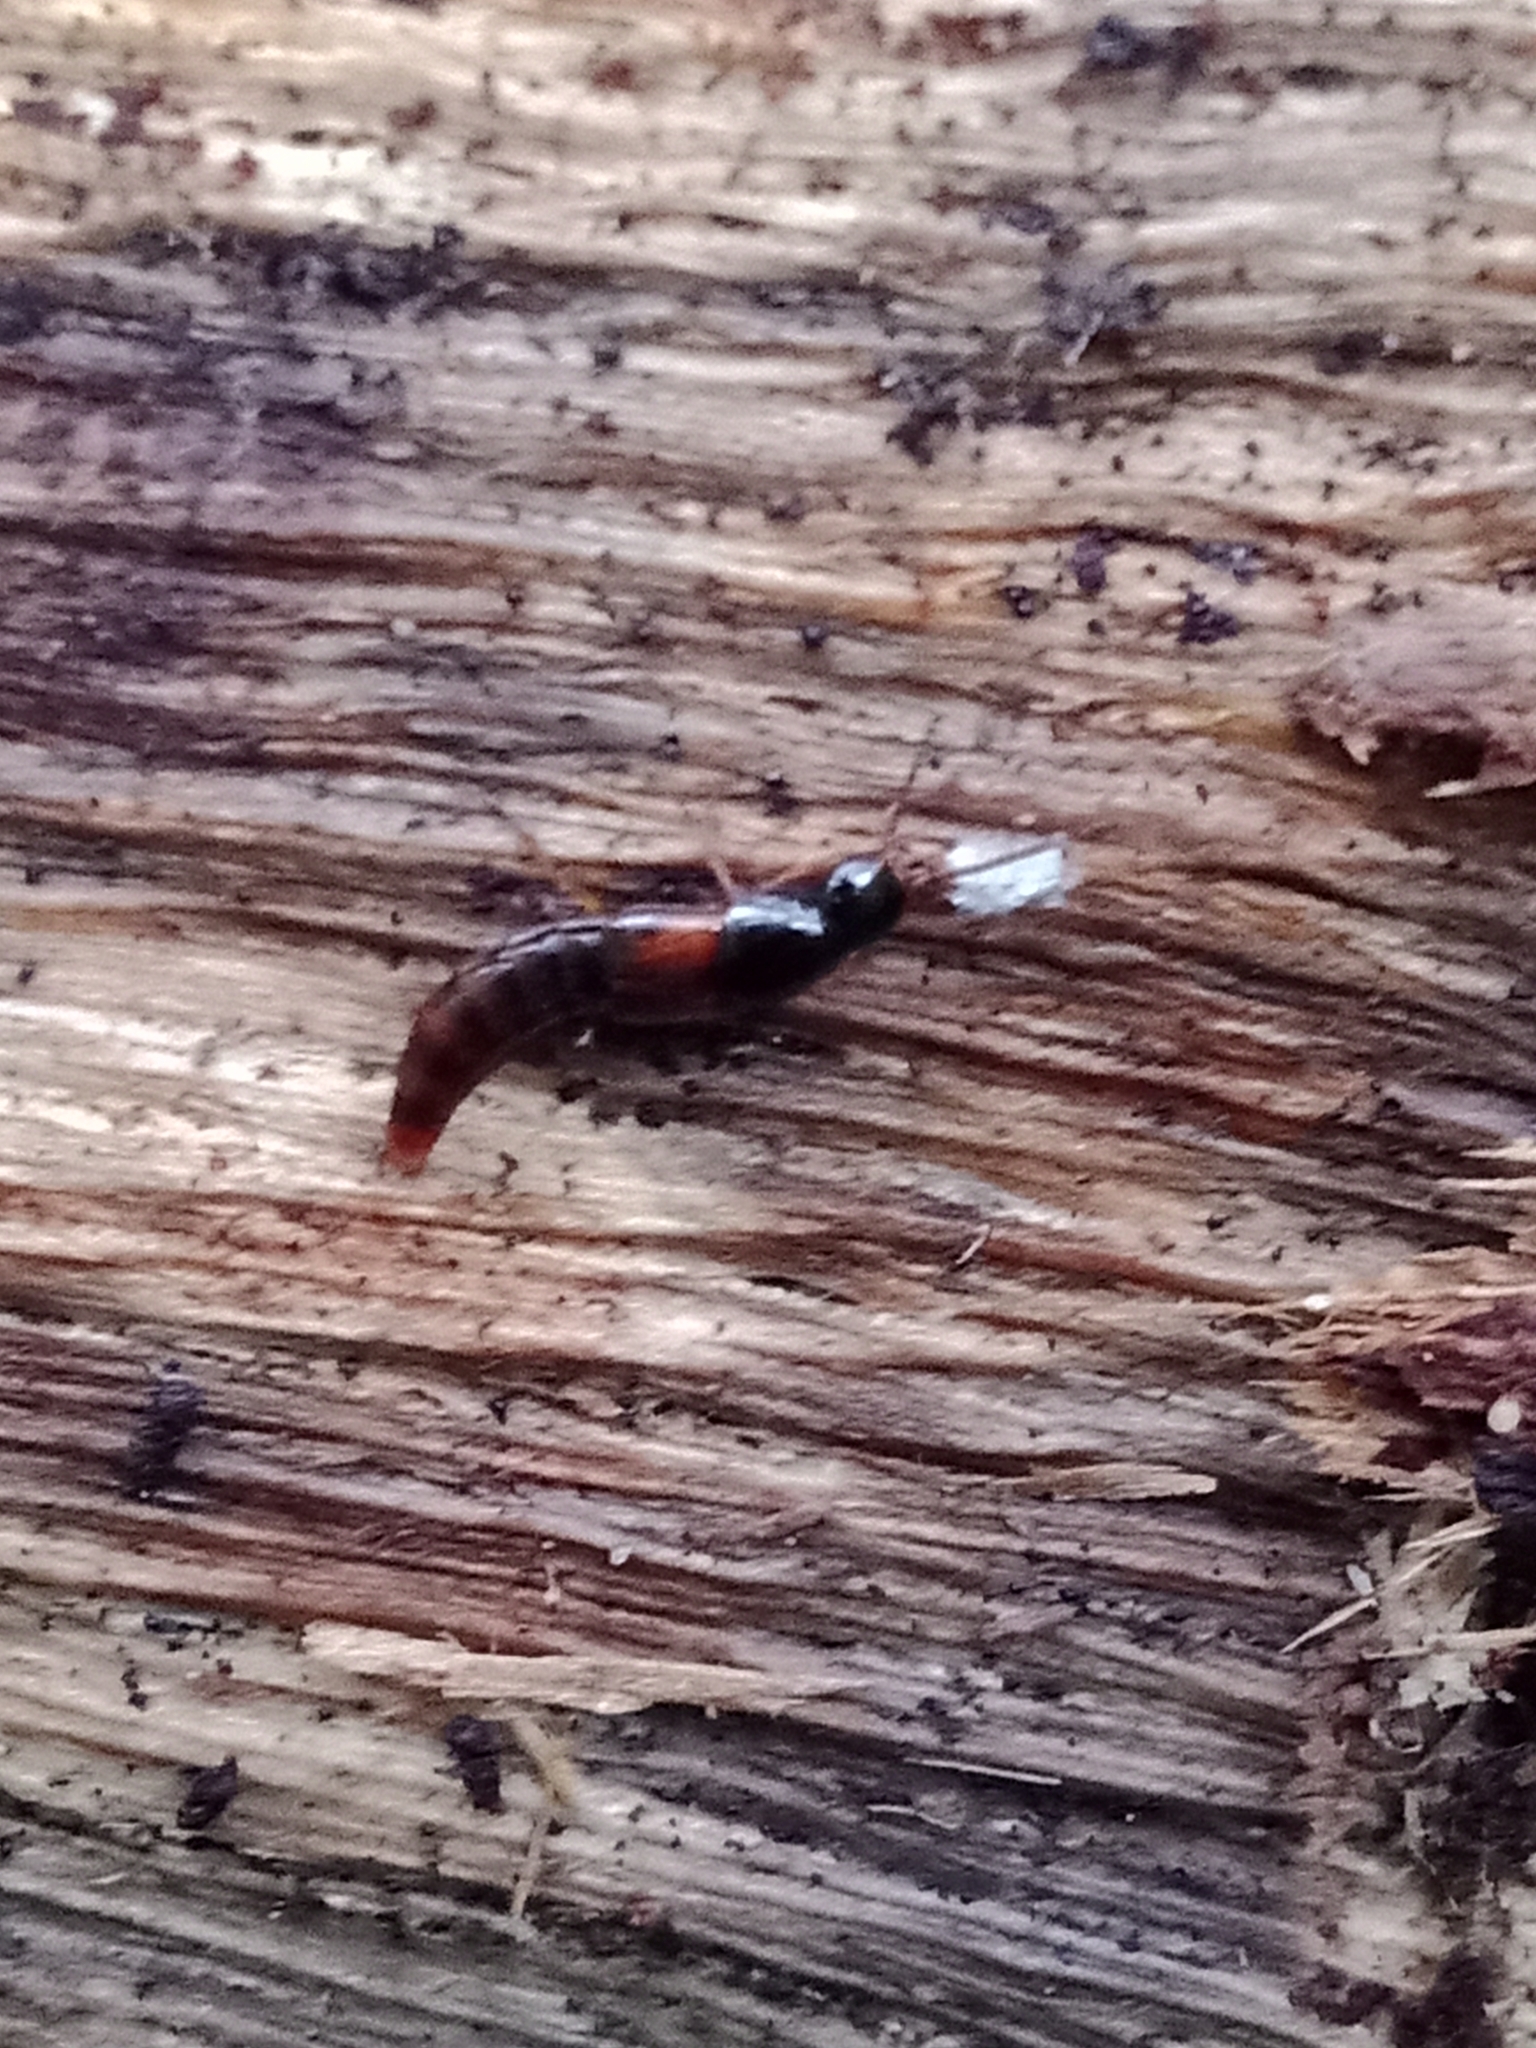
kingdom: Animalia
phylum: Arthropoda
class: Insecta
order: Coleoptera
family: Staphylinidae
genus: Quedius
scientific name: Quedius scitus
